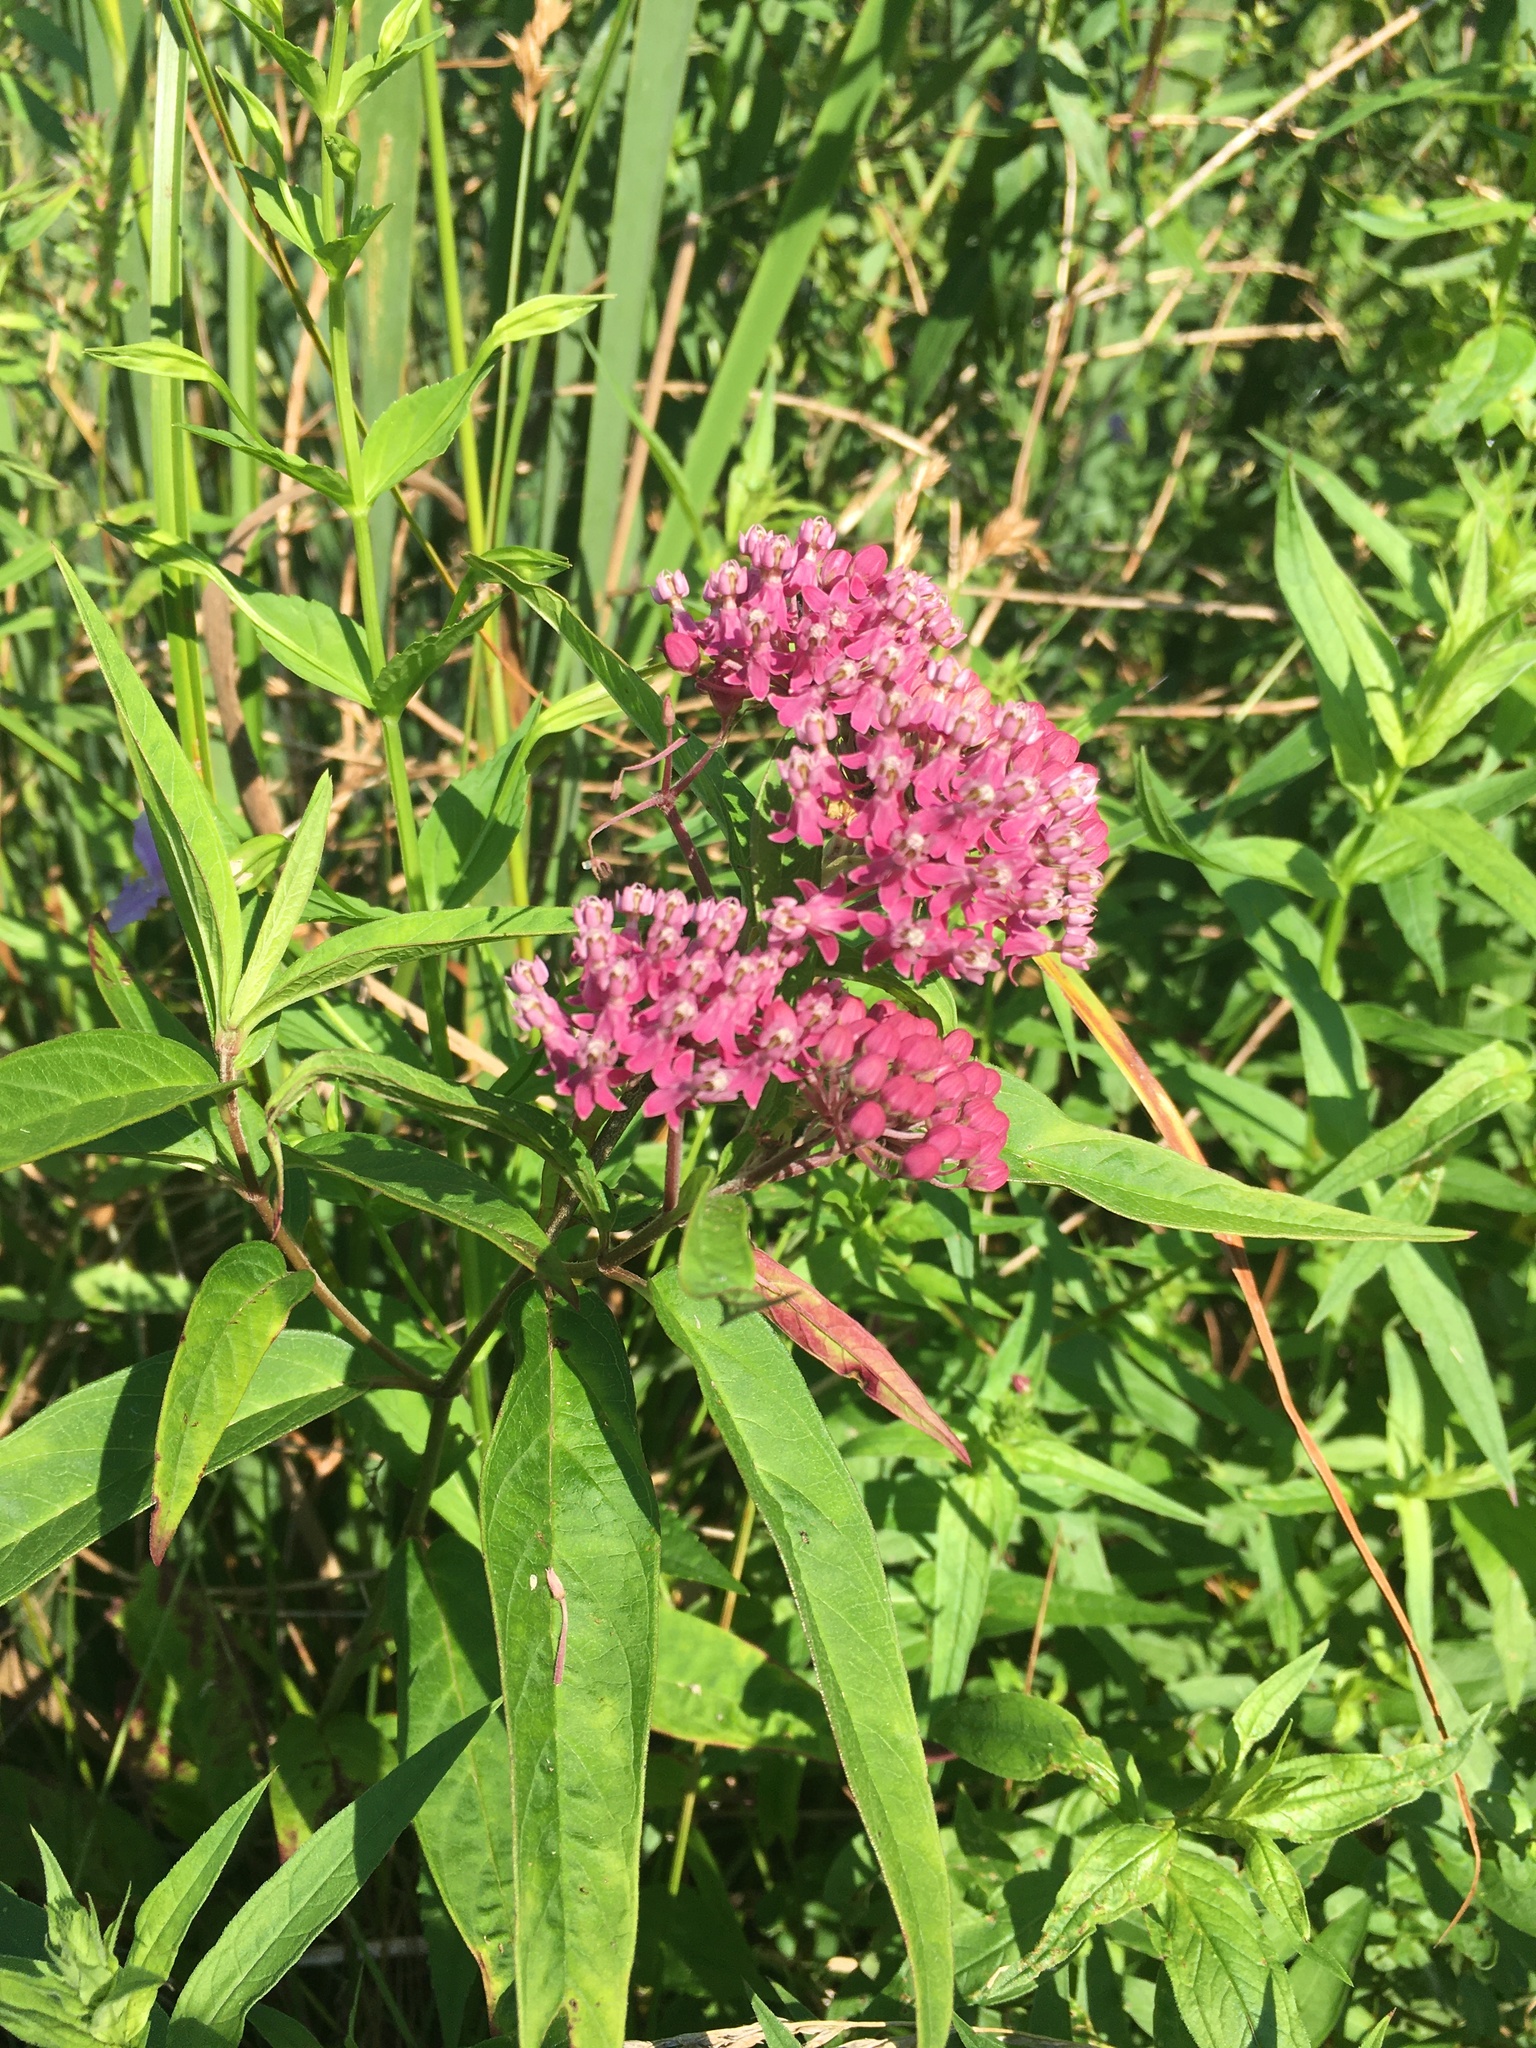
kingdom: Plantae
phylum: Tracheophyta
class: Magnoliopsida
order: Gentianales
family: Apocynaceae
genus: Asclepias
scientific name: Asclepias incarnata
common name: Swamp milkweed
